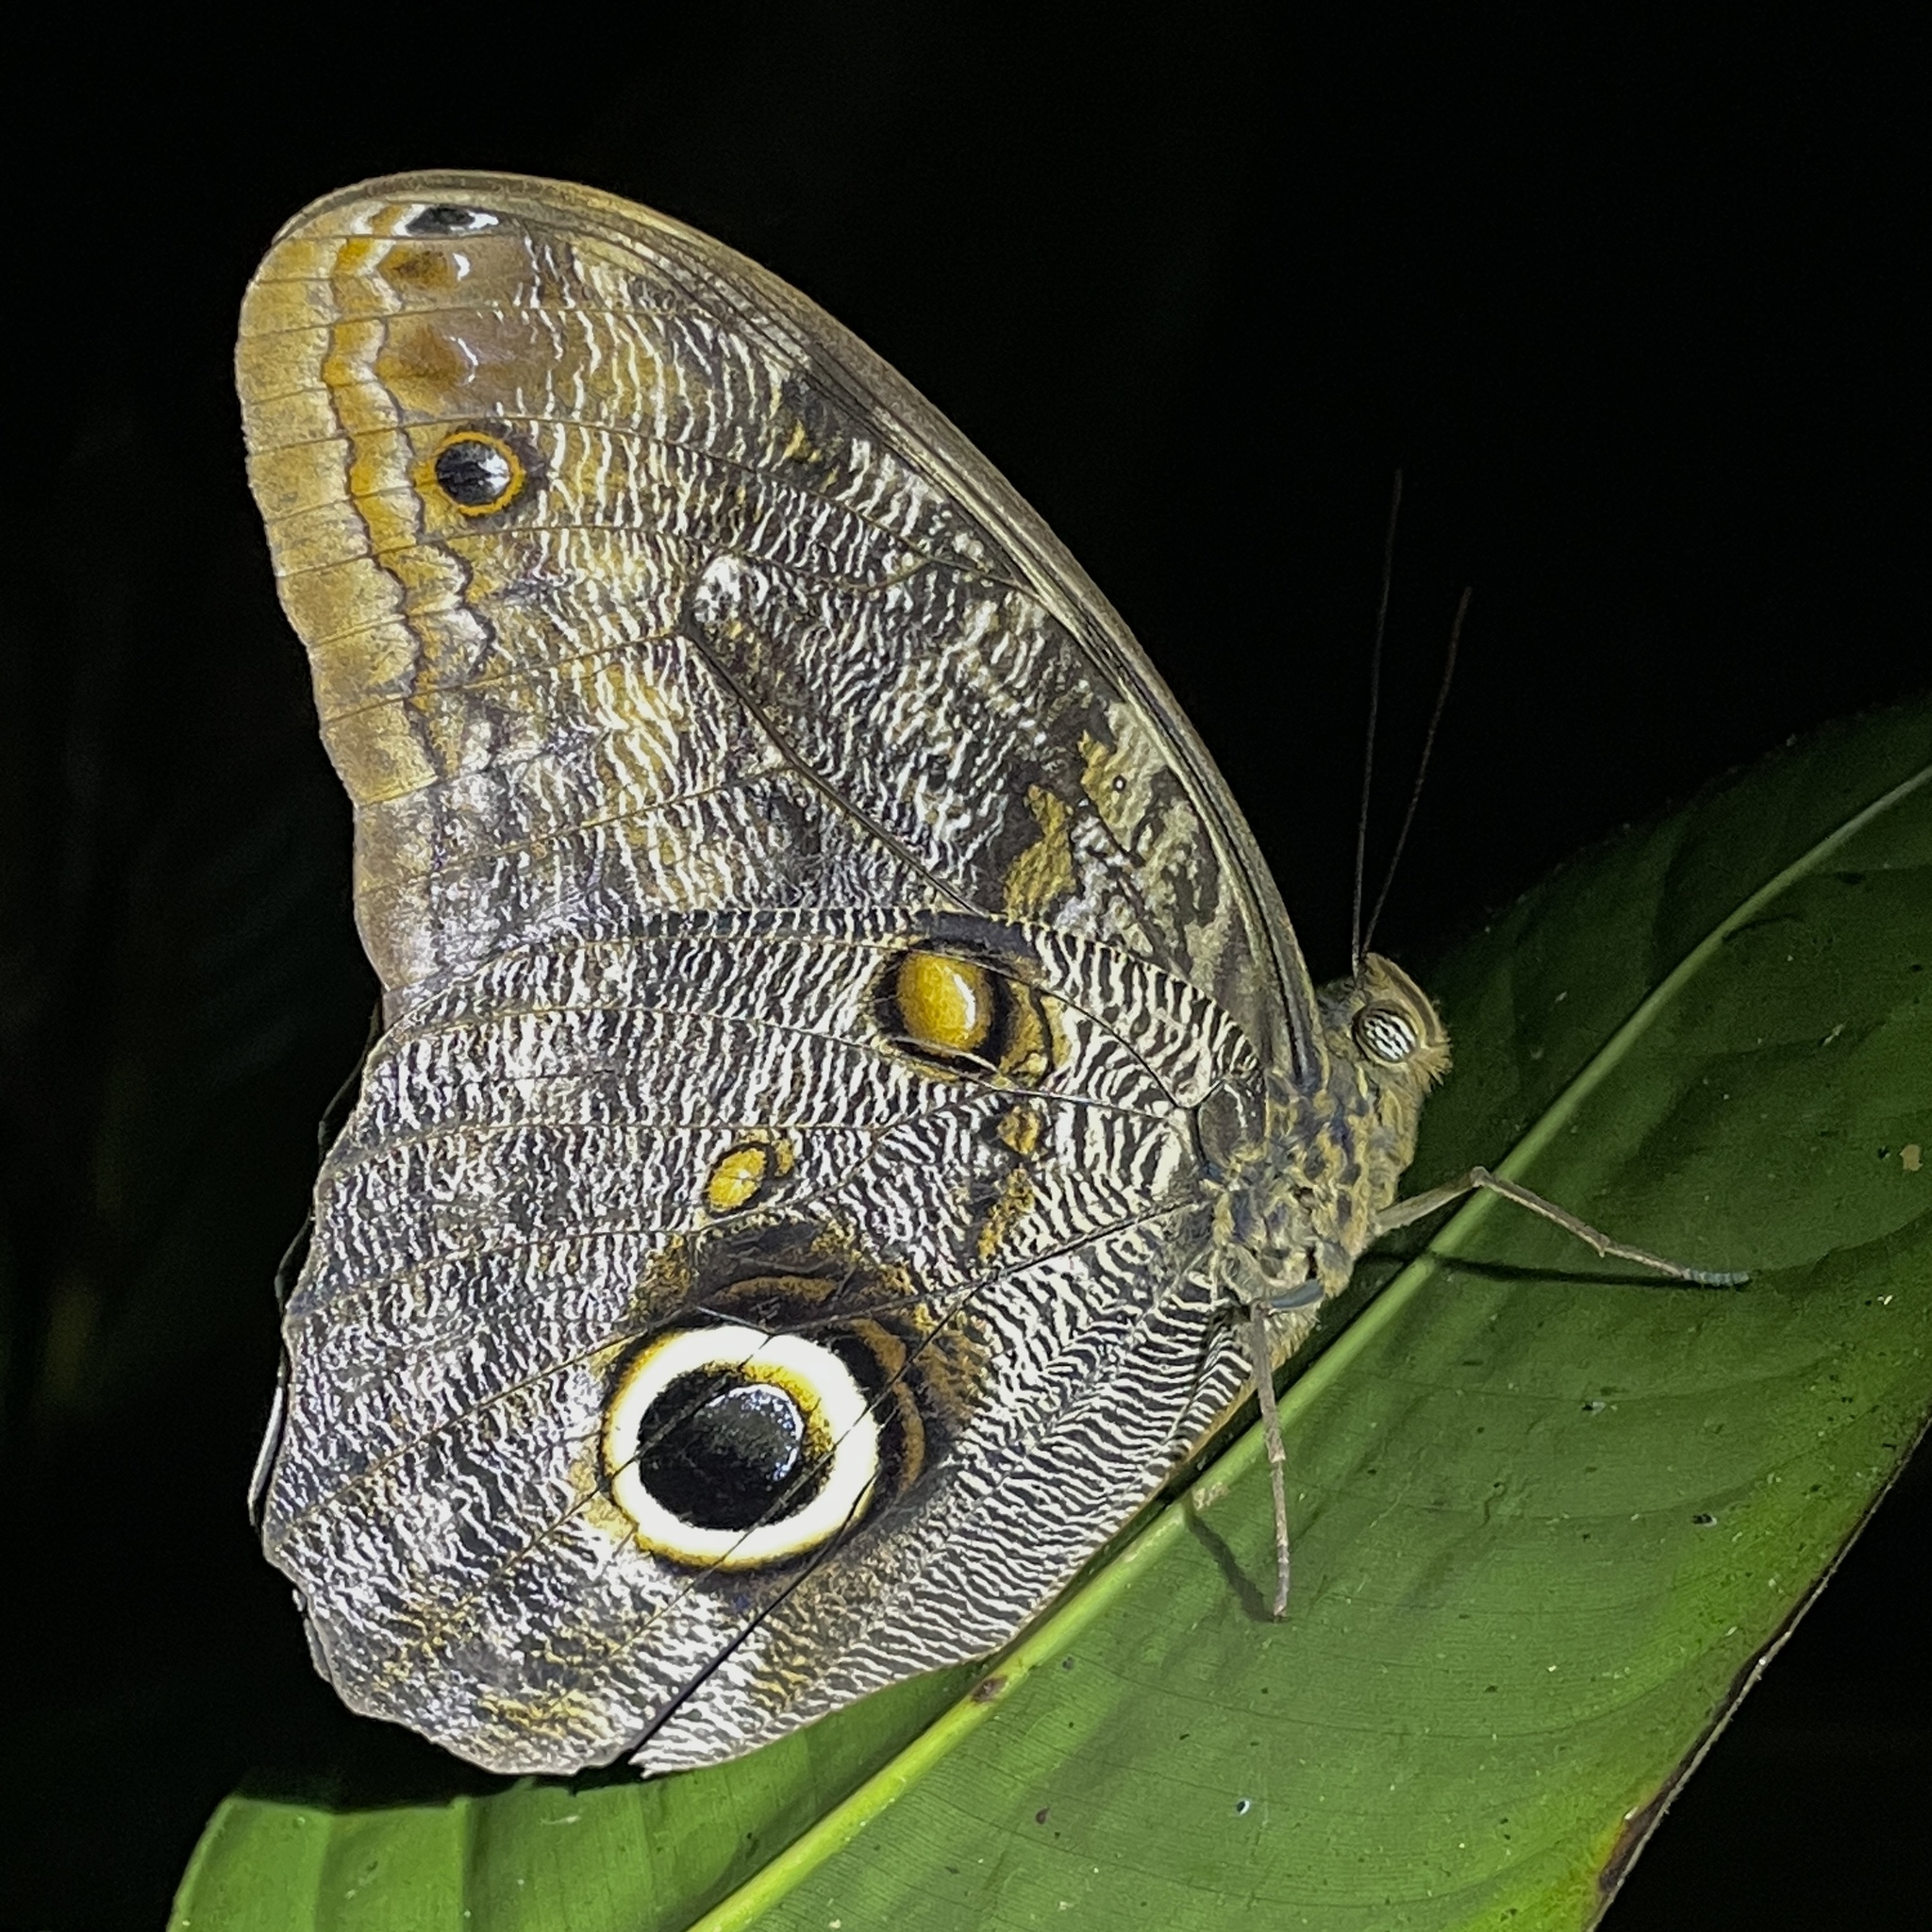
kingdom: Animalia
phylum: Arthropoda
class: Insecta
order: Lepidoptera
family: Nymphalidae
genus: Caligo
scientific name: Caligo brasiliensis
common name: Dark owl-butterfly
